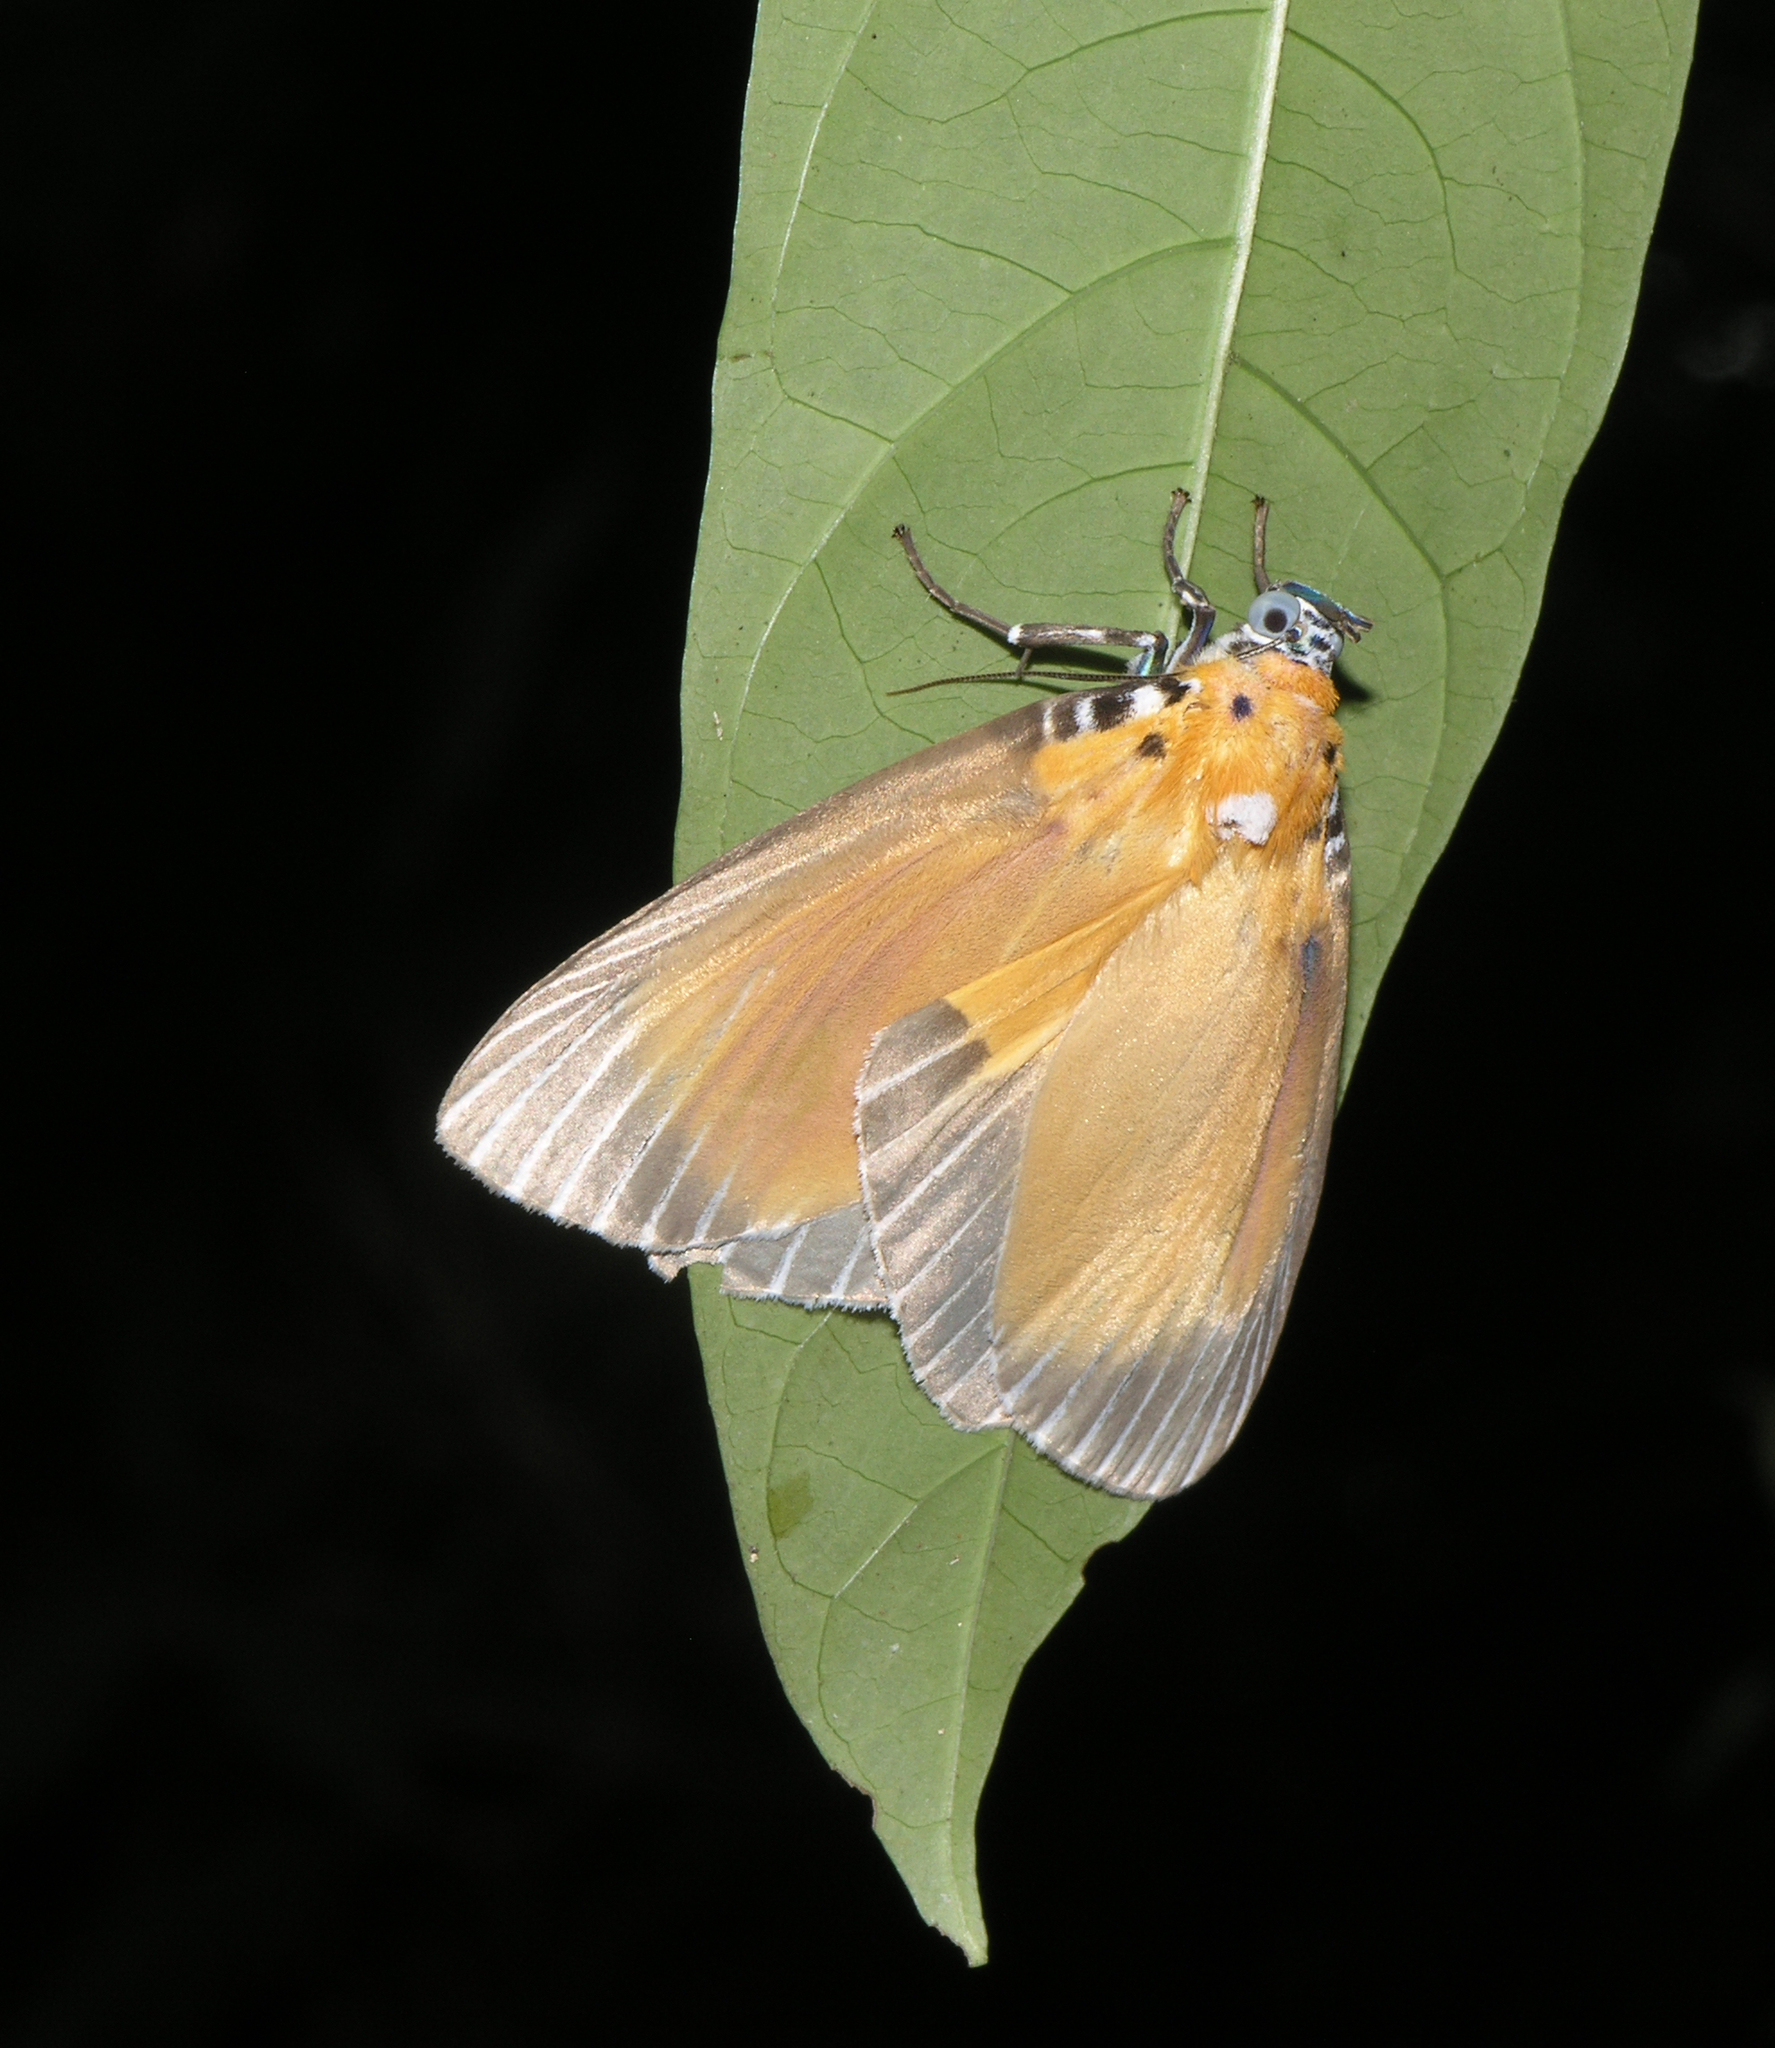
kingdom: Animalia
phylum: Arthropoda
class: Insecta
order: Lepidoptera
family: Erebidae
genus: Peridrome
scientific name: Peridrome subfascia
